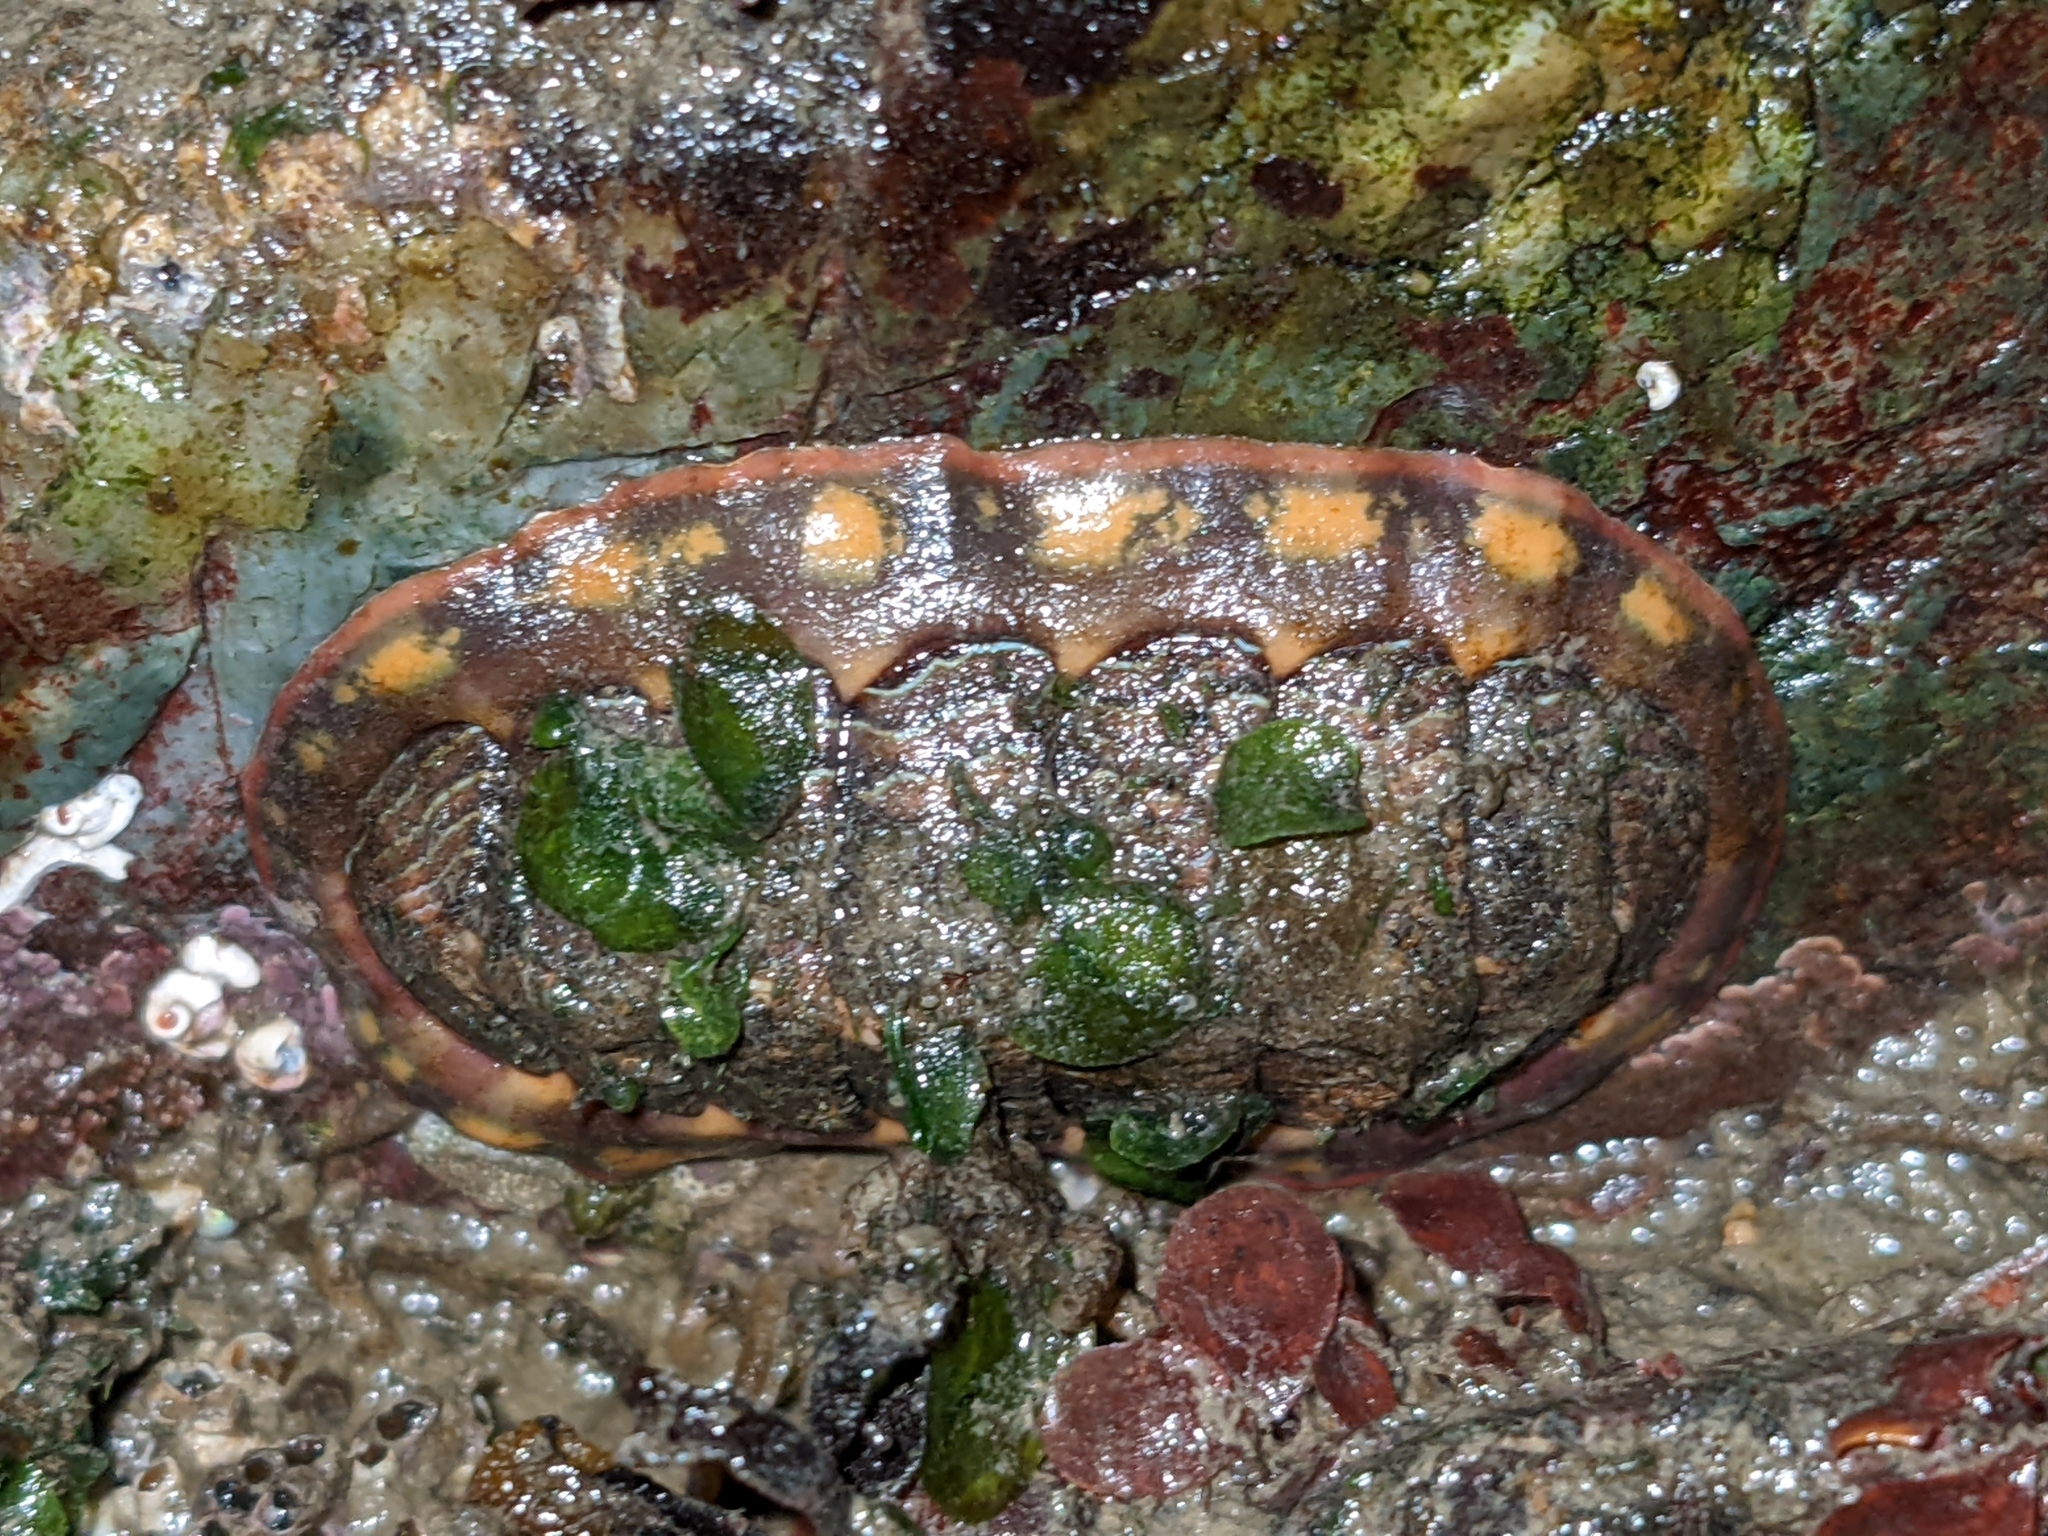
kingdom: Animalia
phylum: Mollusca
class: Polyplacophora
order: Chitonida
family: Tonicellidae
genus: Tonicella
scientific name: Tonicella lineata
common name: Lined chiton
